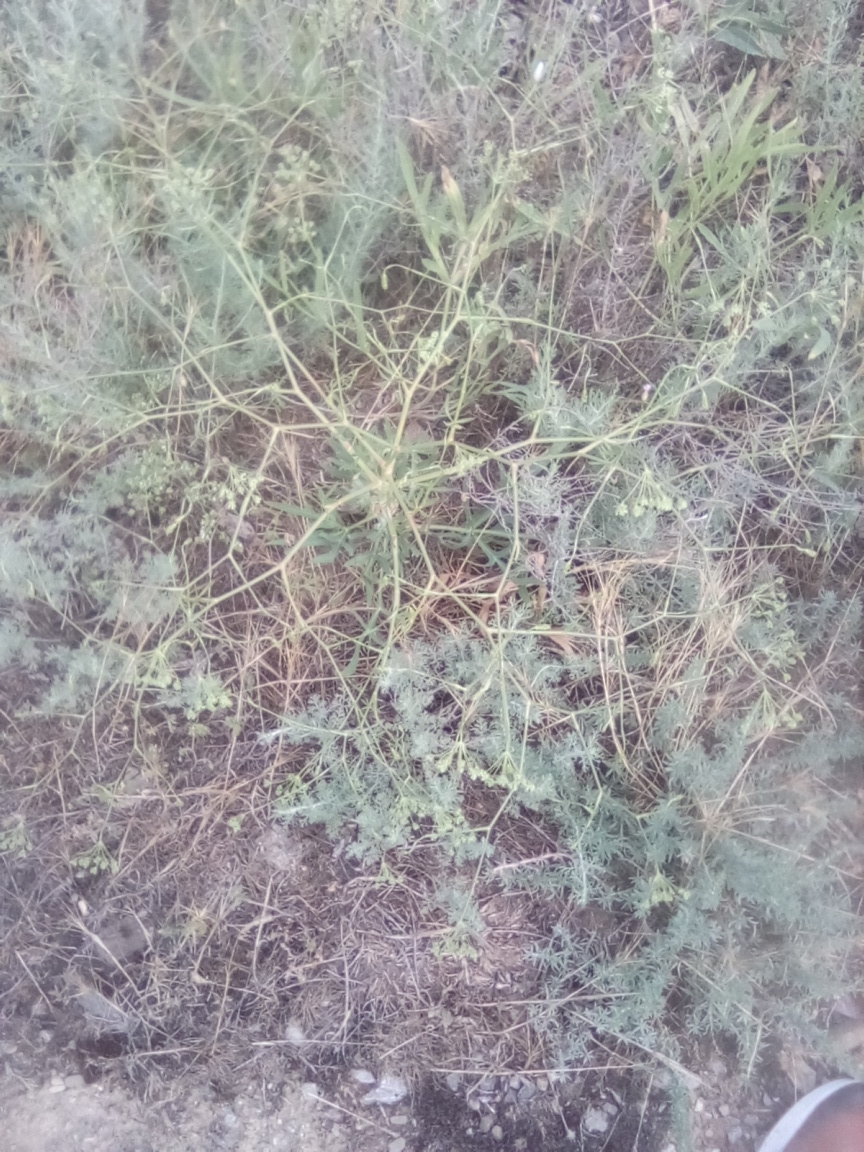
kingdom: Plantae
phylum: Tracheophyta
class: Magnoliopsida
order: Apiales
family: Apiaceae
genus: Falcaria
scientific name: Falcaria vulgaris
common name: Longleaf
